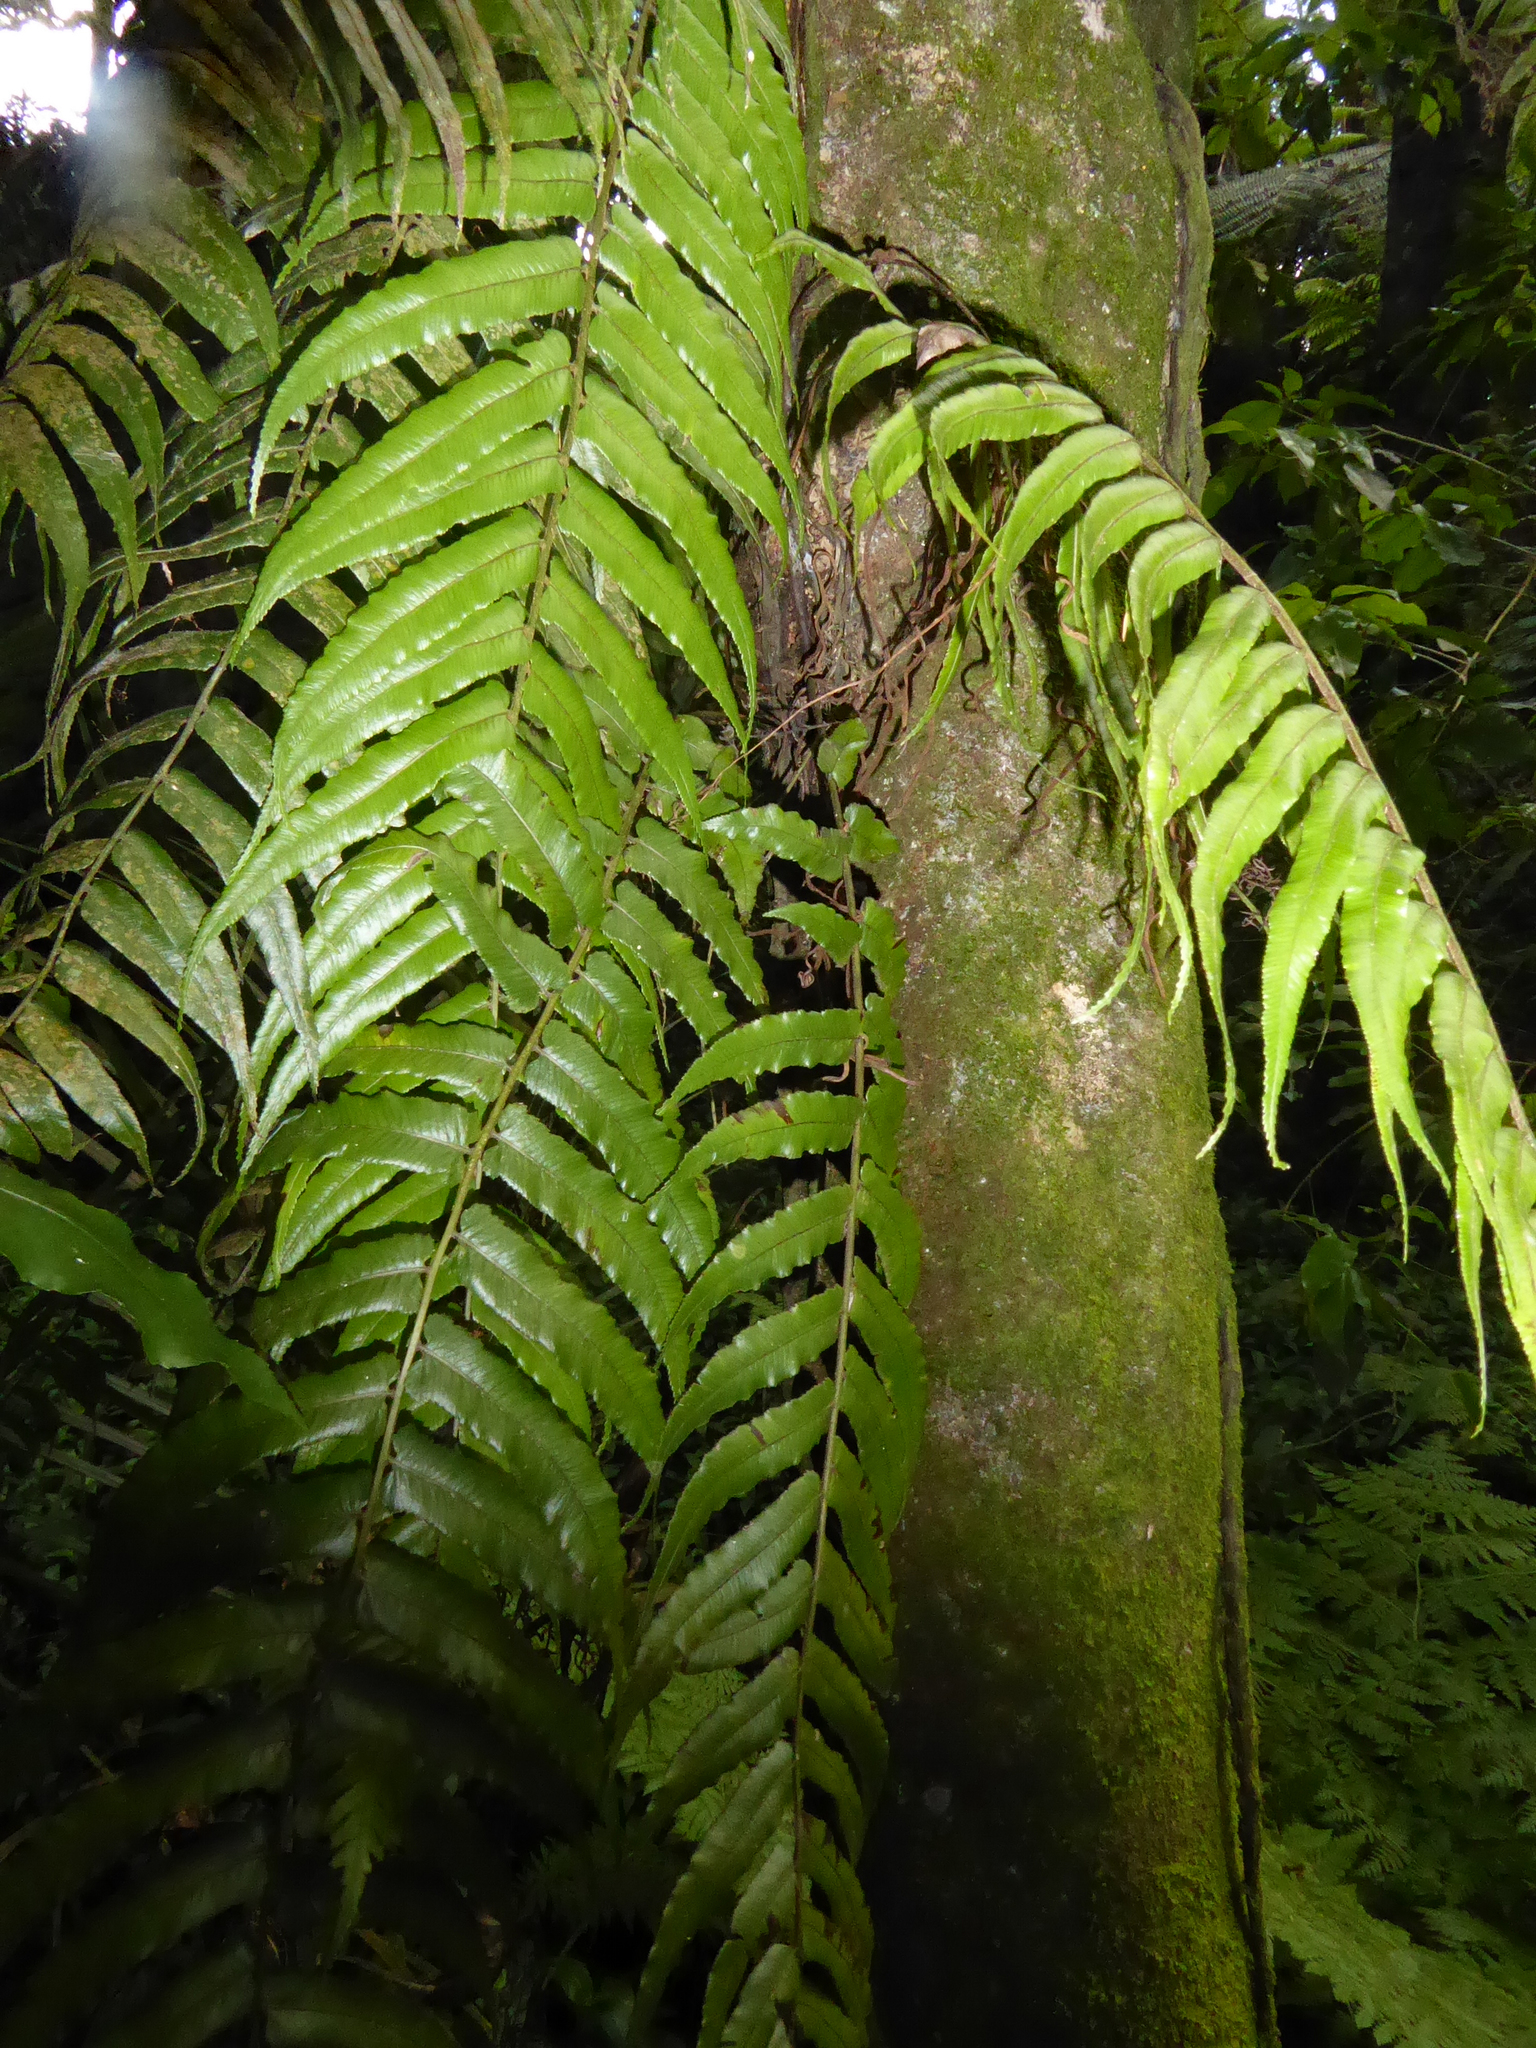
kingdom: Plantae
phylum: Tracheophyta
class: Polypodiopsida
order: Polypodiales
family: Blechnaceae
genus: Icarus
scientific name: Icarus filiformis
